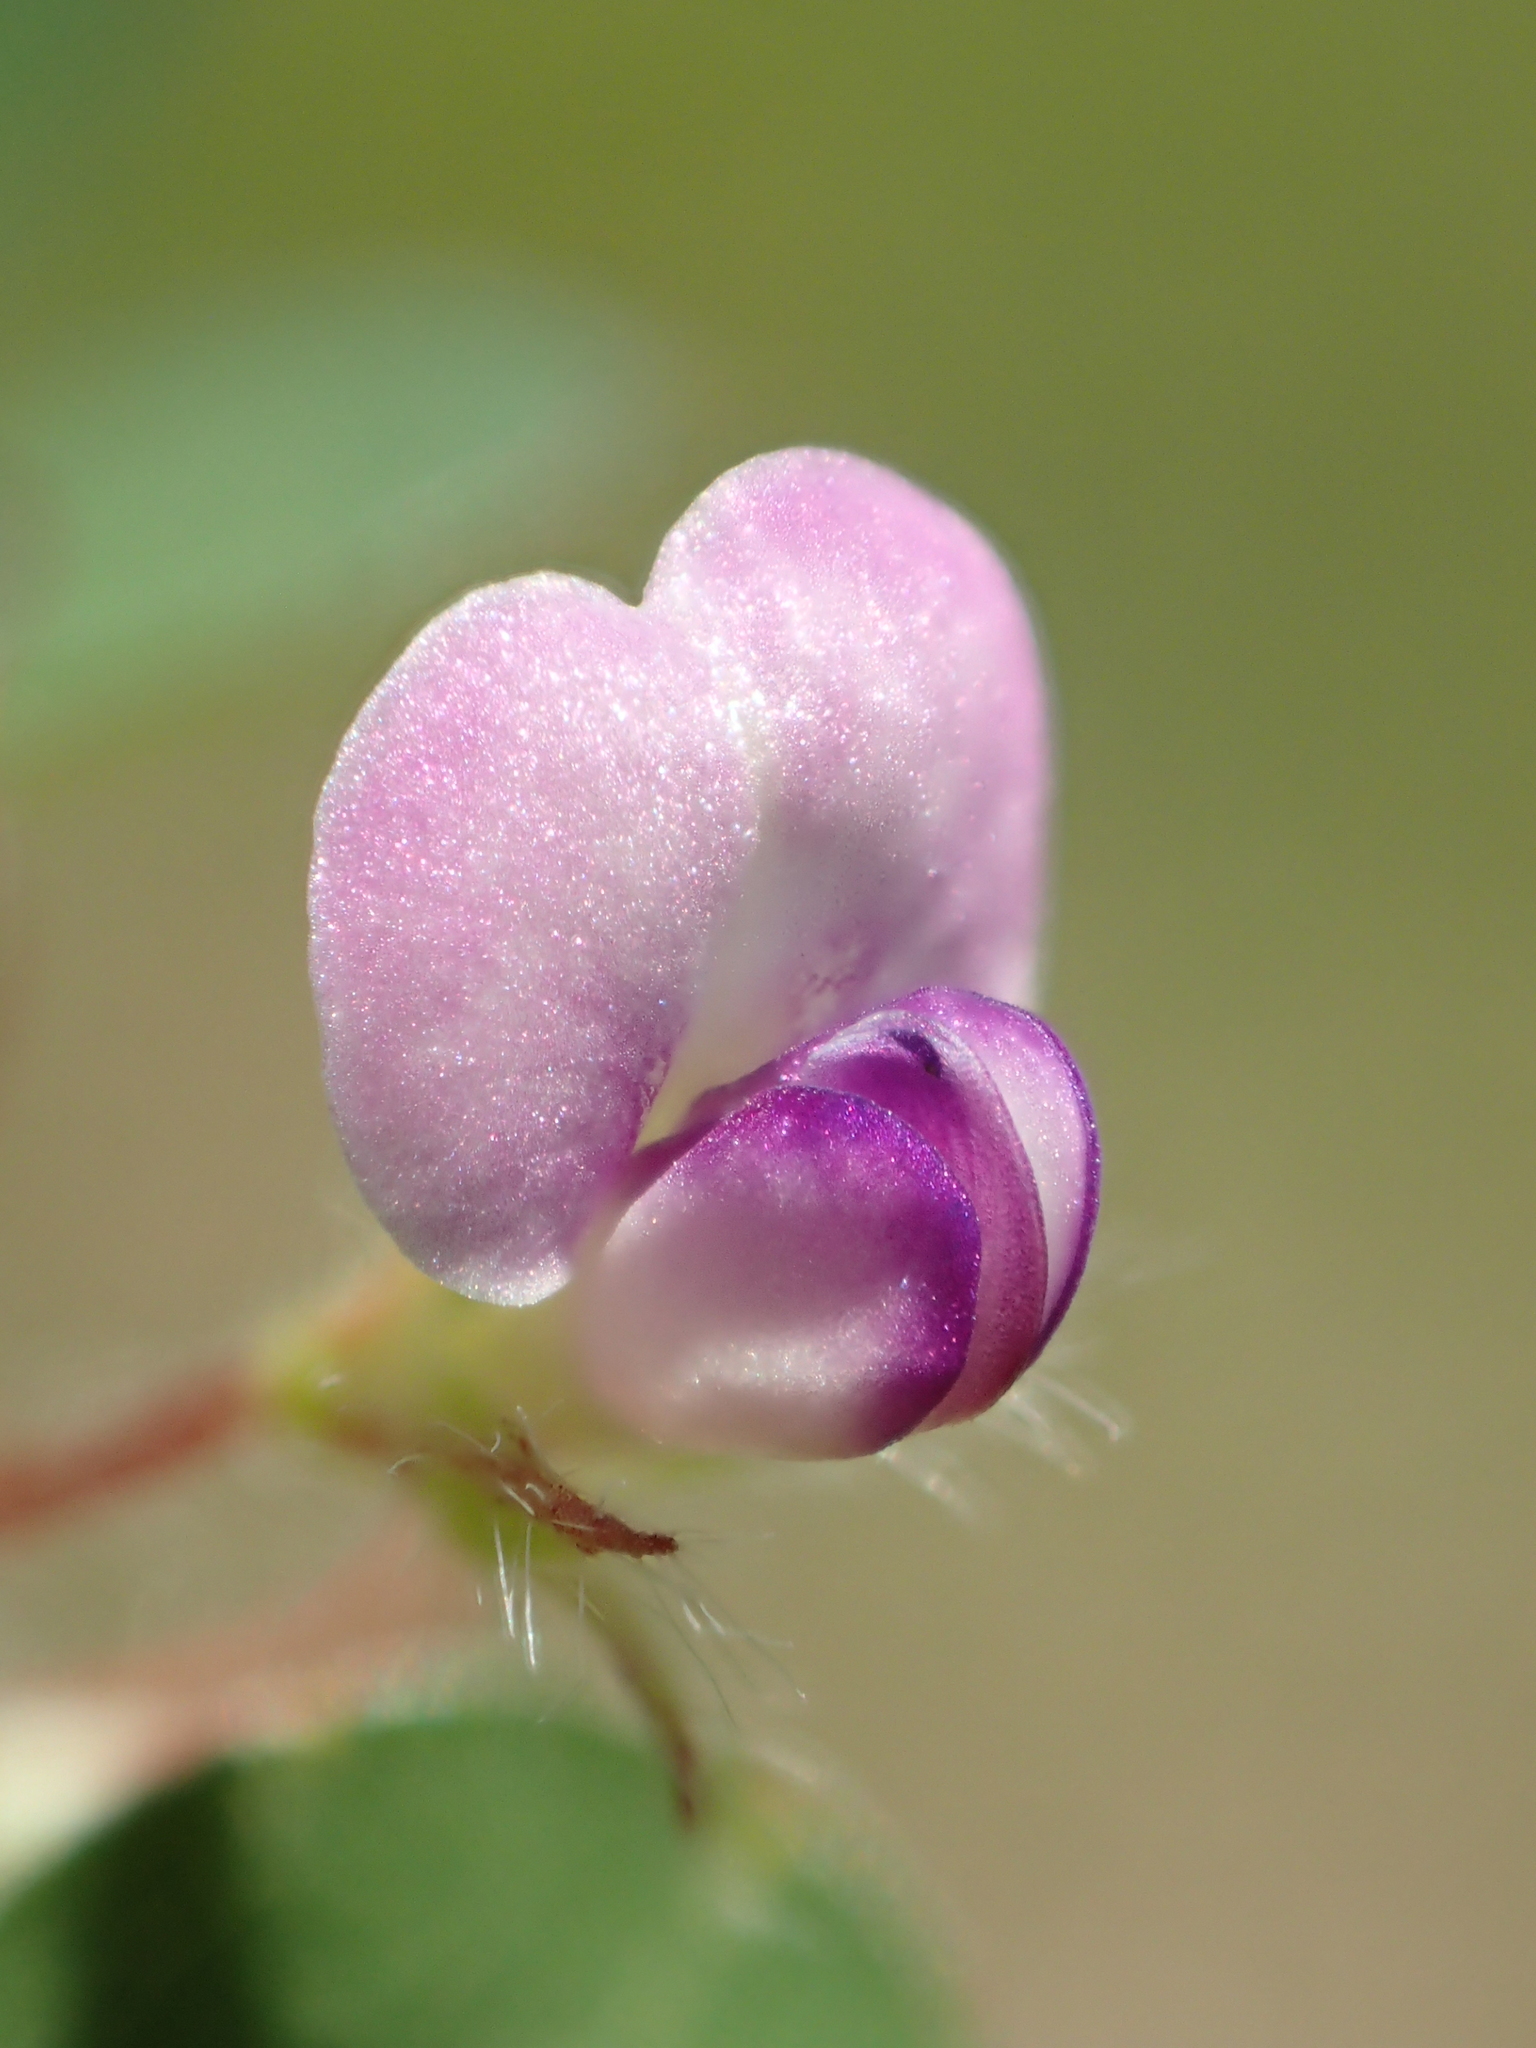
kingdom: Plantae
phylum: Tracheophyta
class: Magnoliopsida
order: Fabales
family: Fabaceae
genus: Grona
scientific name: Grona triflora
